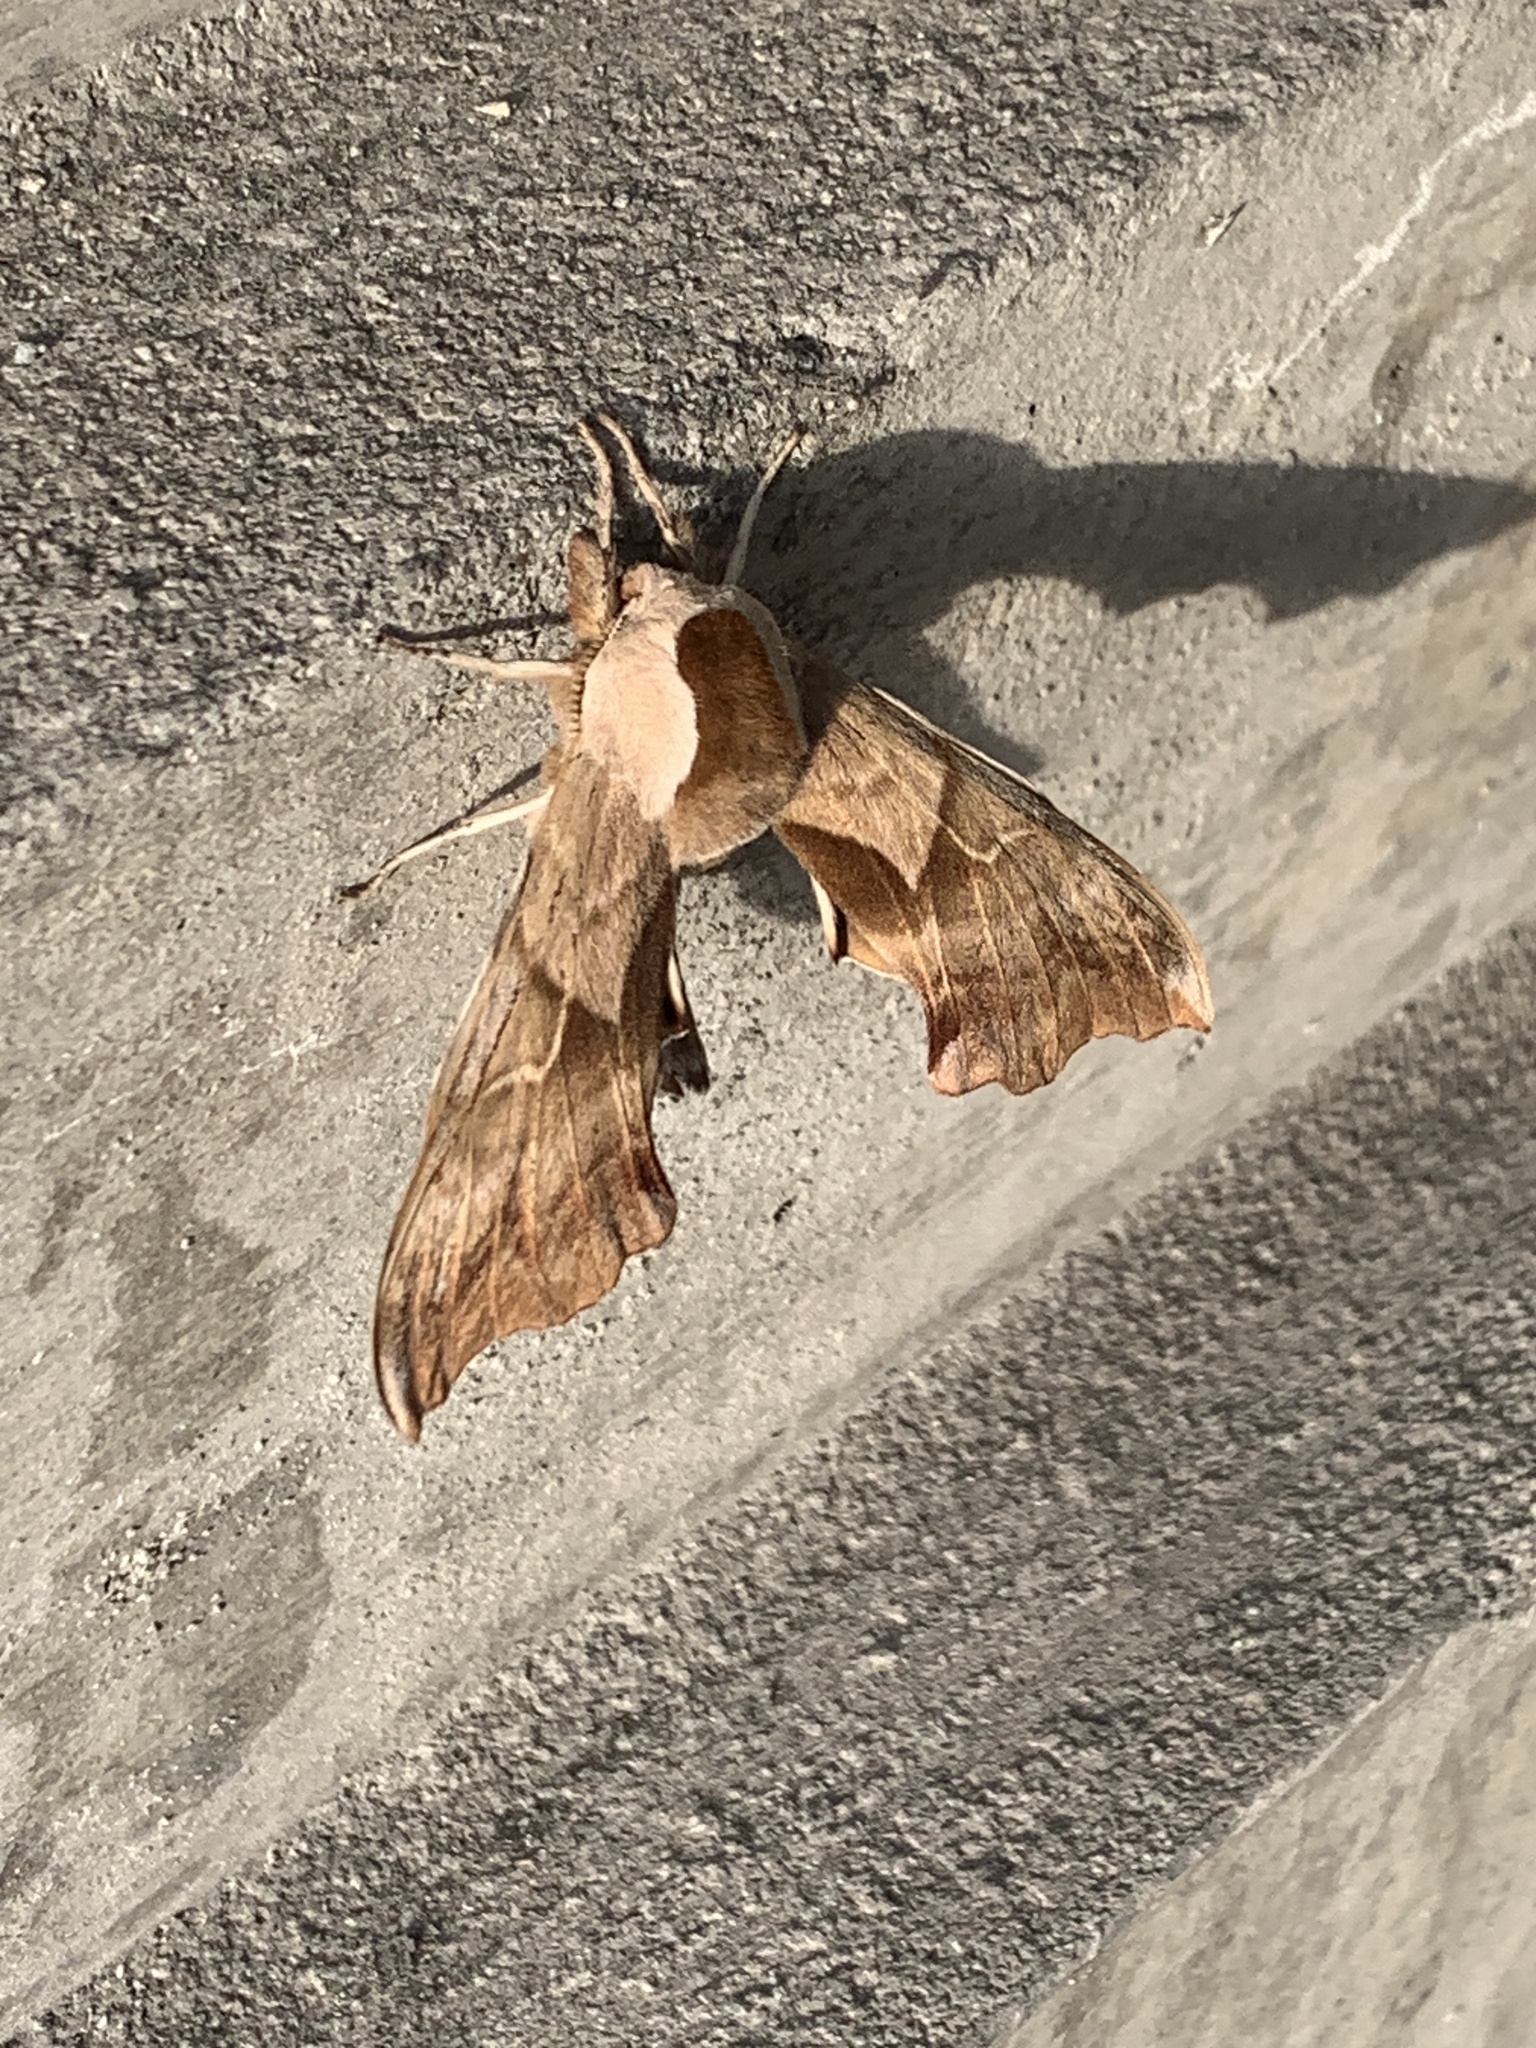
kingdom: Animalia
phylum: Arthropoda
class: Insecta
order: Lepidoptera
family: Sphingidae
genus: Smerinthus
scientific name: Smerinthus cerisyi
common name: Cerisy's sphinx moth
